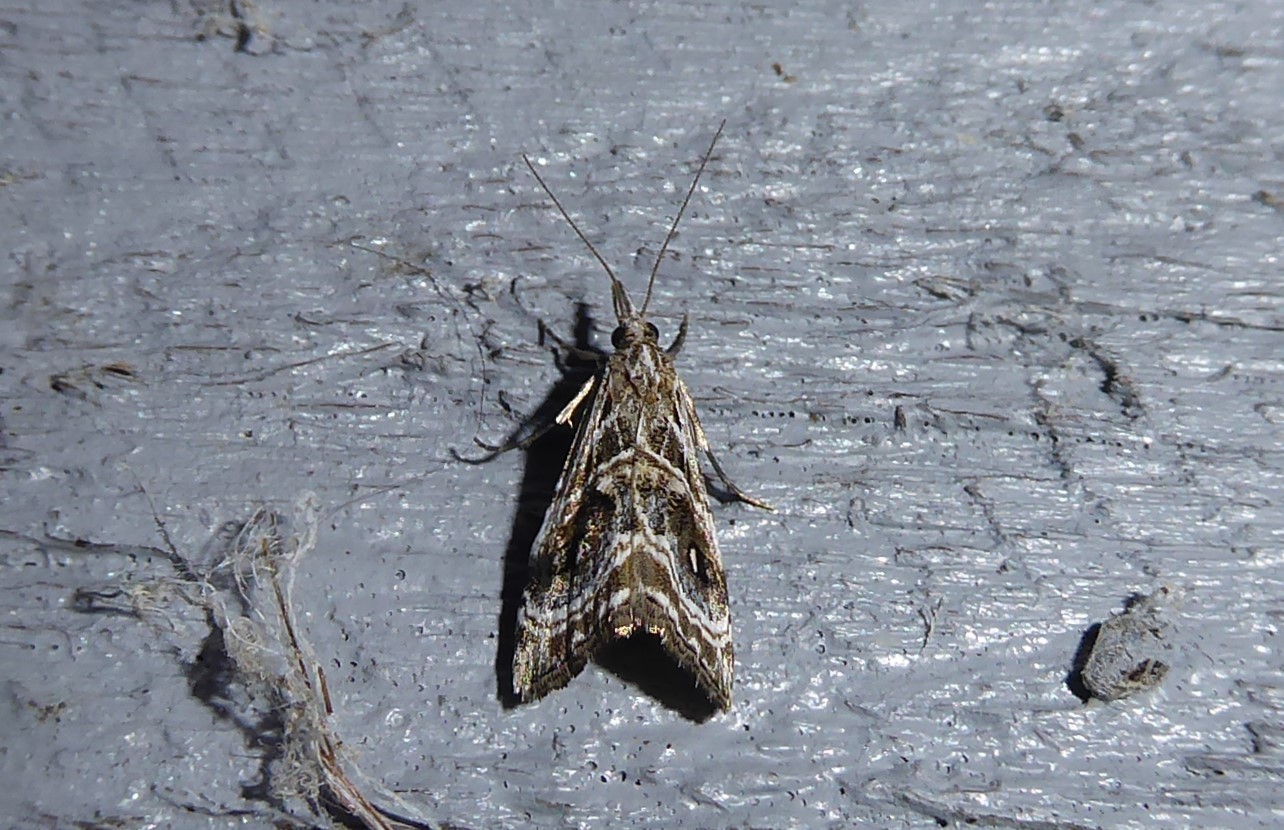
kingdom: Animalia
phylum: Arthropoda
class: Insecta
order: Lepidoptera
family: Crambidae
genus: Gadira
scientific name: Gadira acerella
